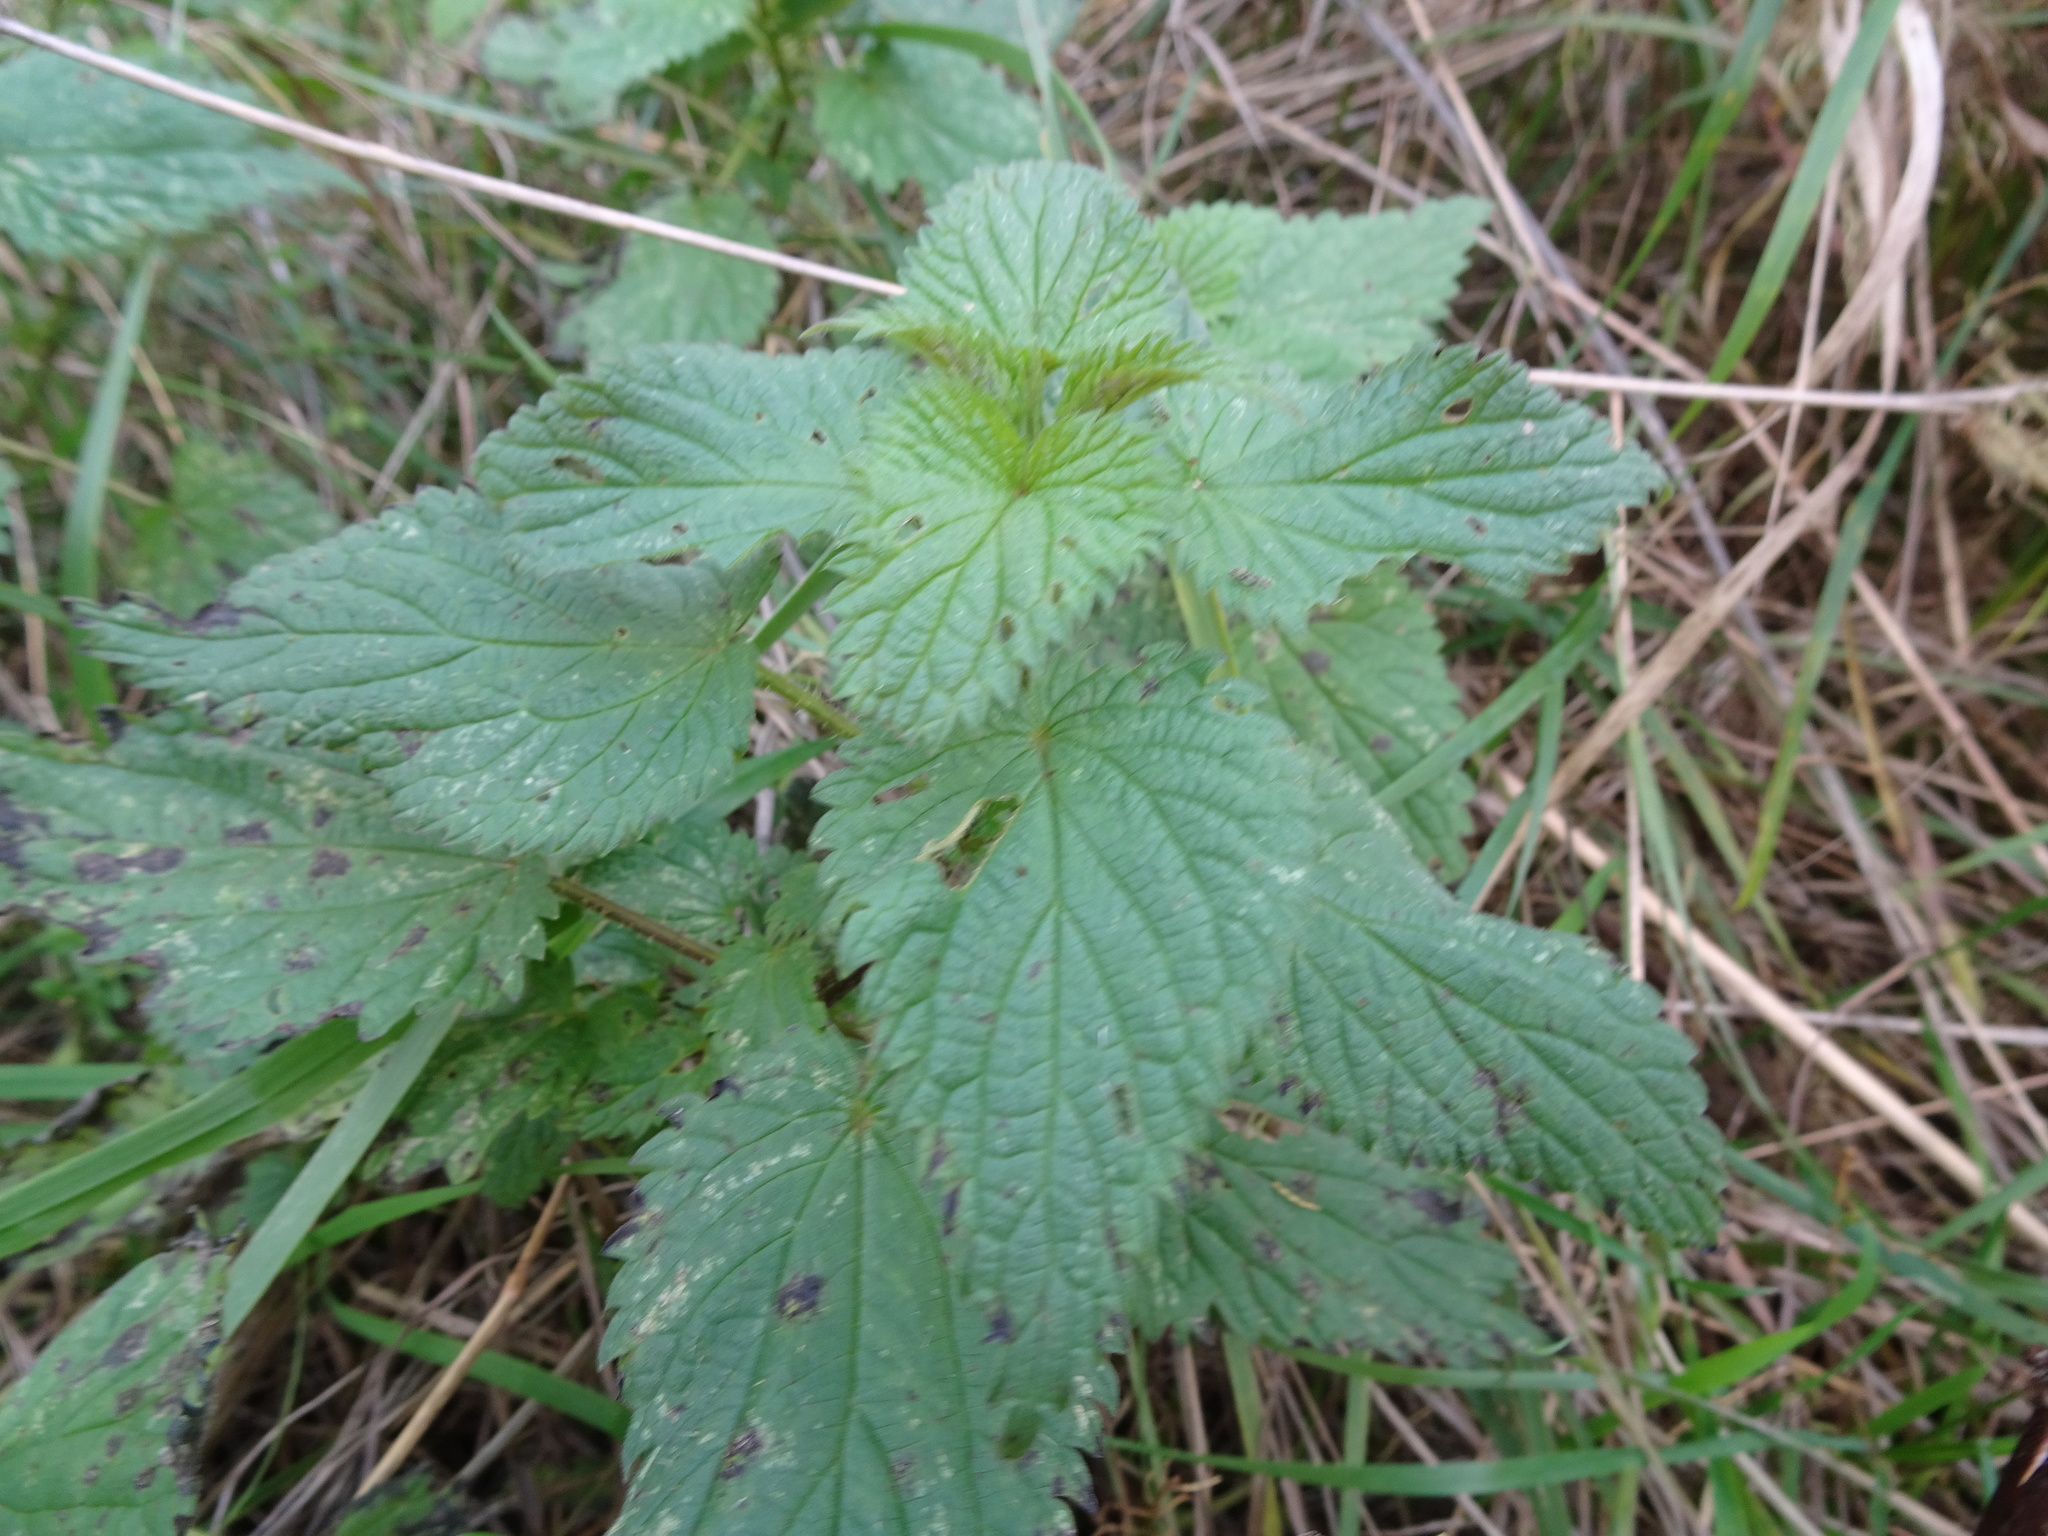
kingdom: Plantae
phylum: Tracheophyta
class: Magnoliopsida
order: Rosales
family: Urticaceae
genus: Urtica
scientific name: Urtica dioica
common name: Common nettle
